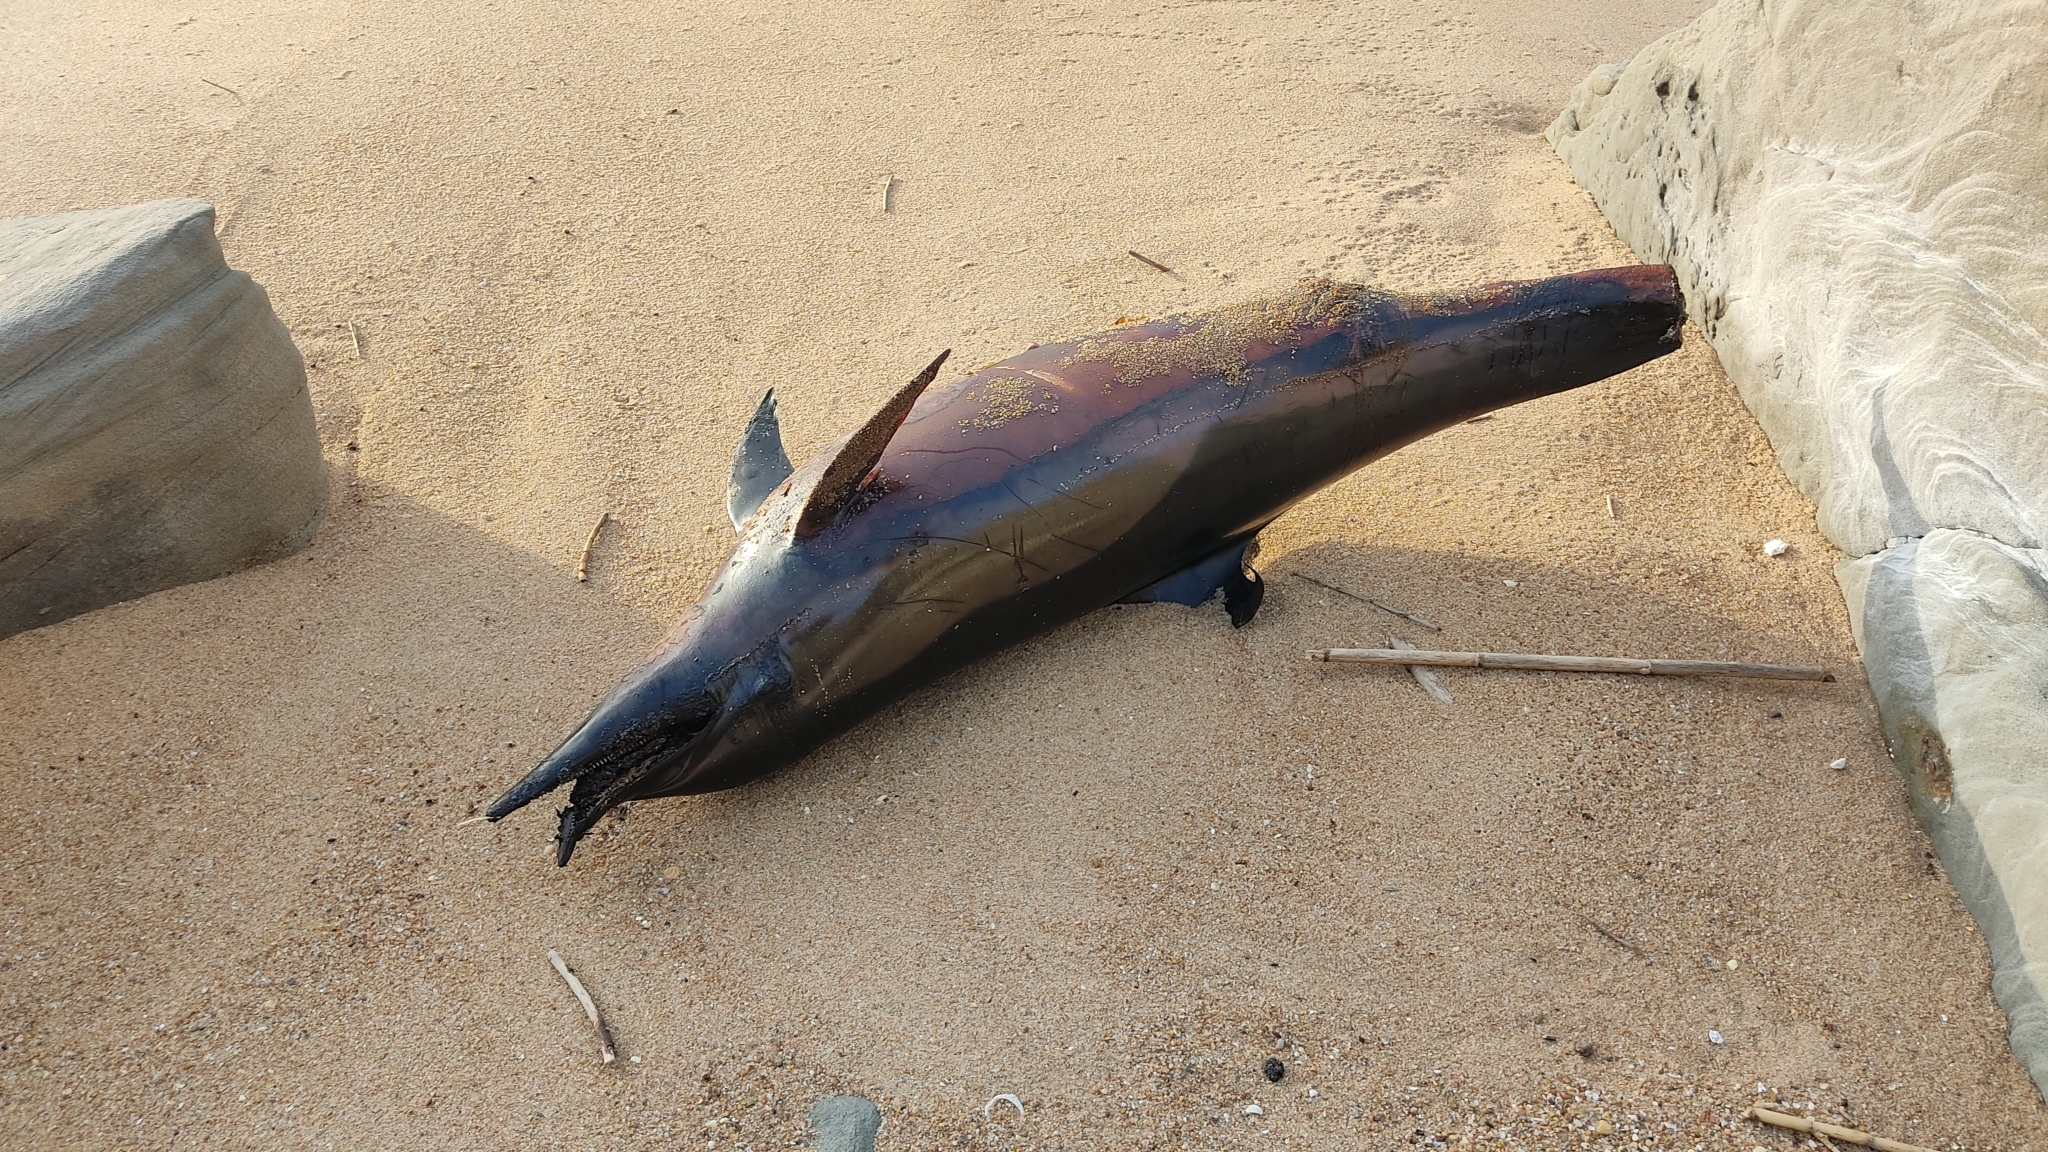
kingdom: Animalia
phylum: Chordata
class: Mammalia
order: Cetacea
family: Delphinidae
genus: Delphinus
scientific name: Delphinus delphis
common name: Common dolphin
